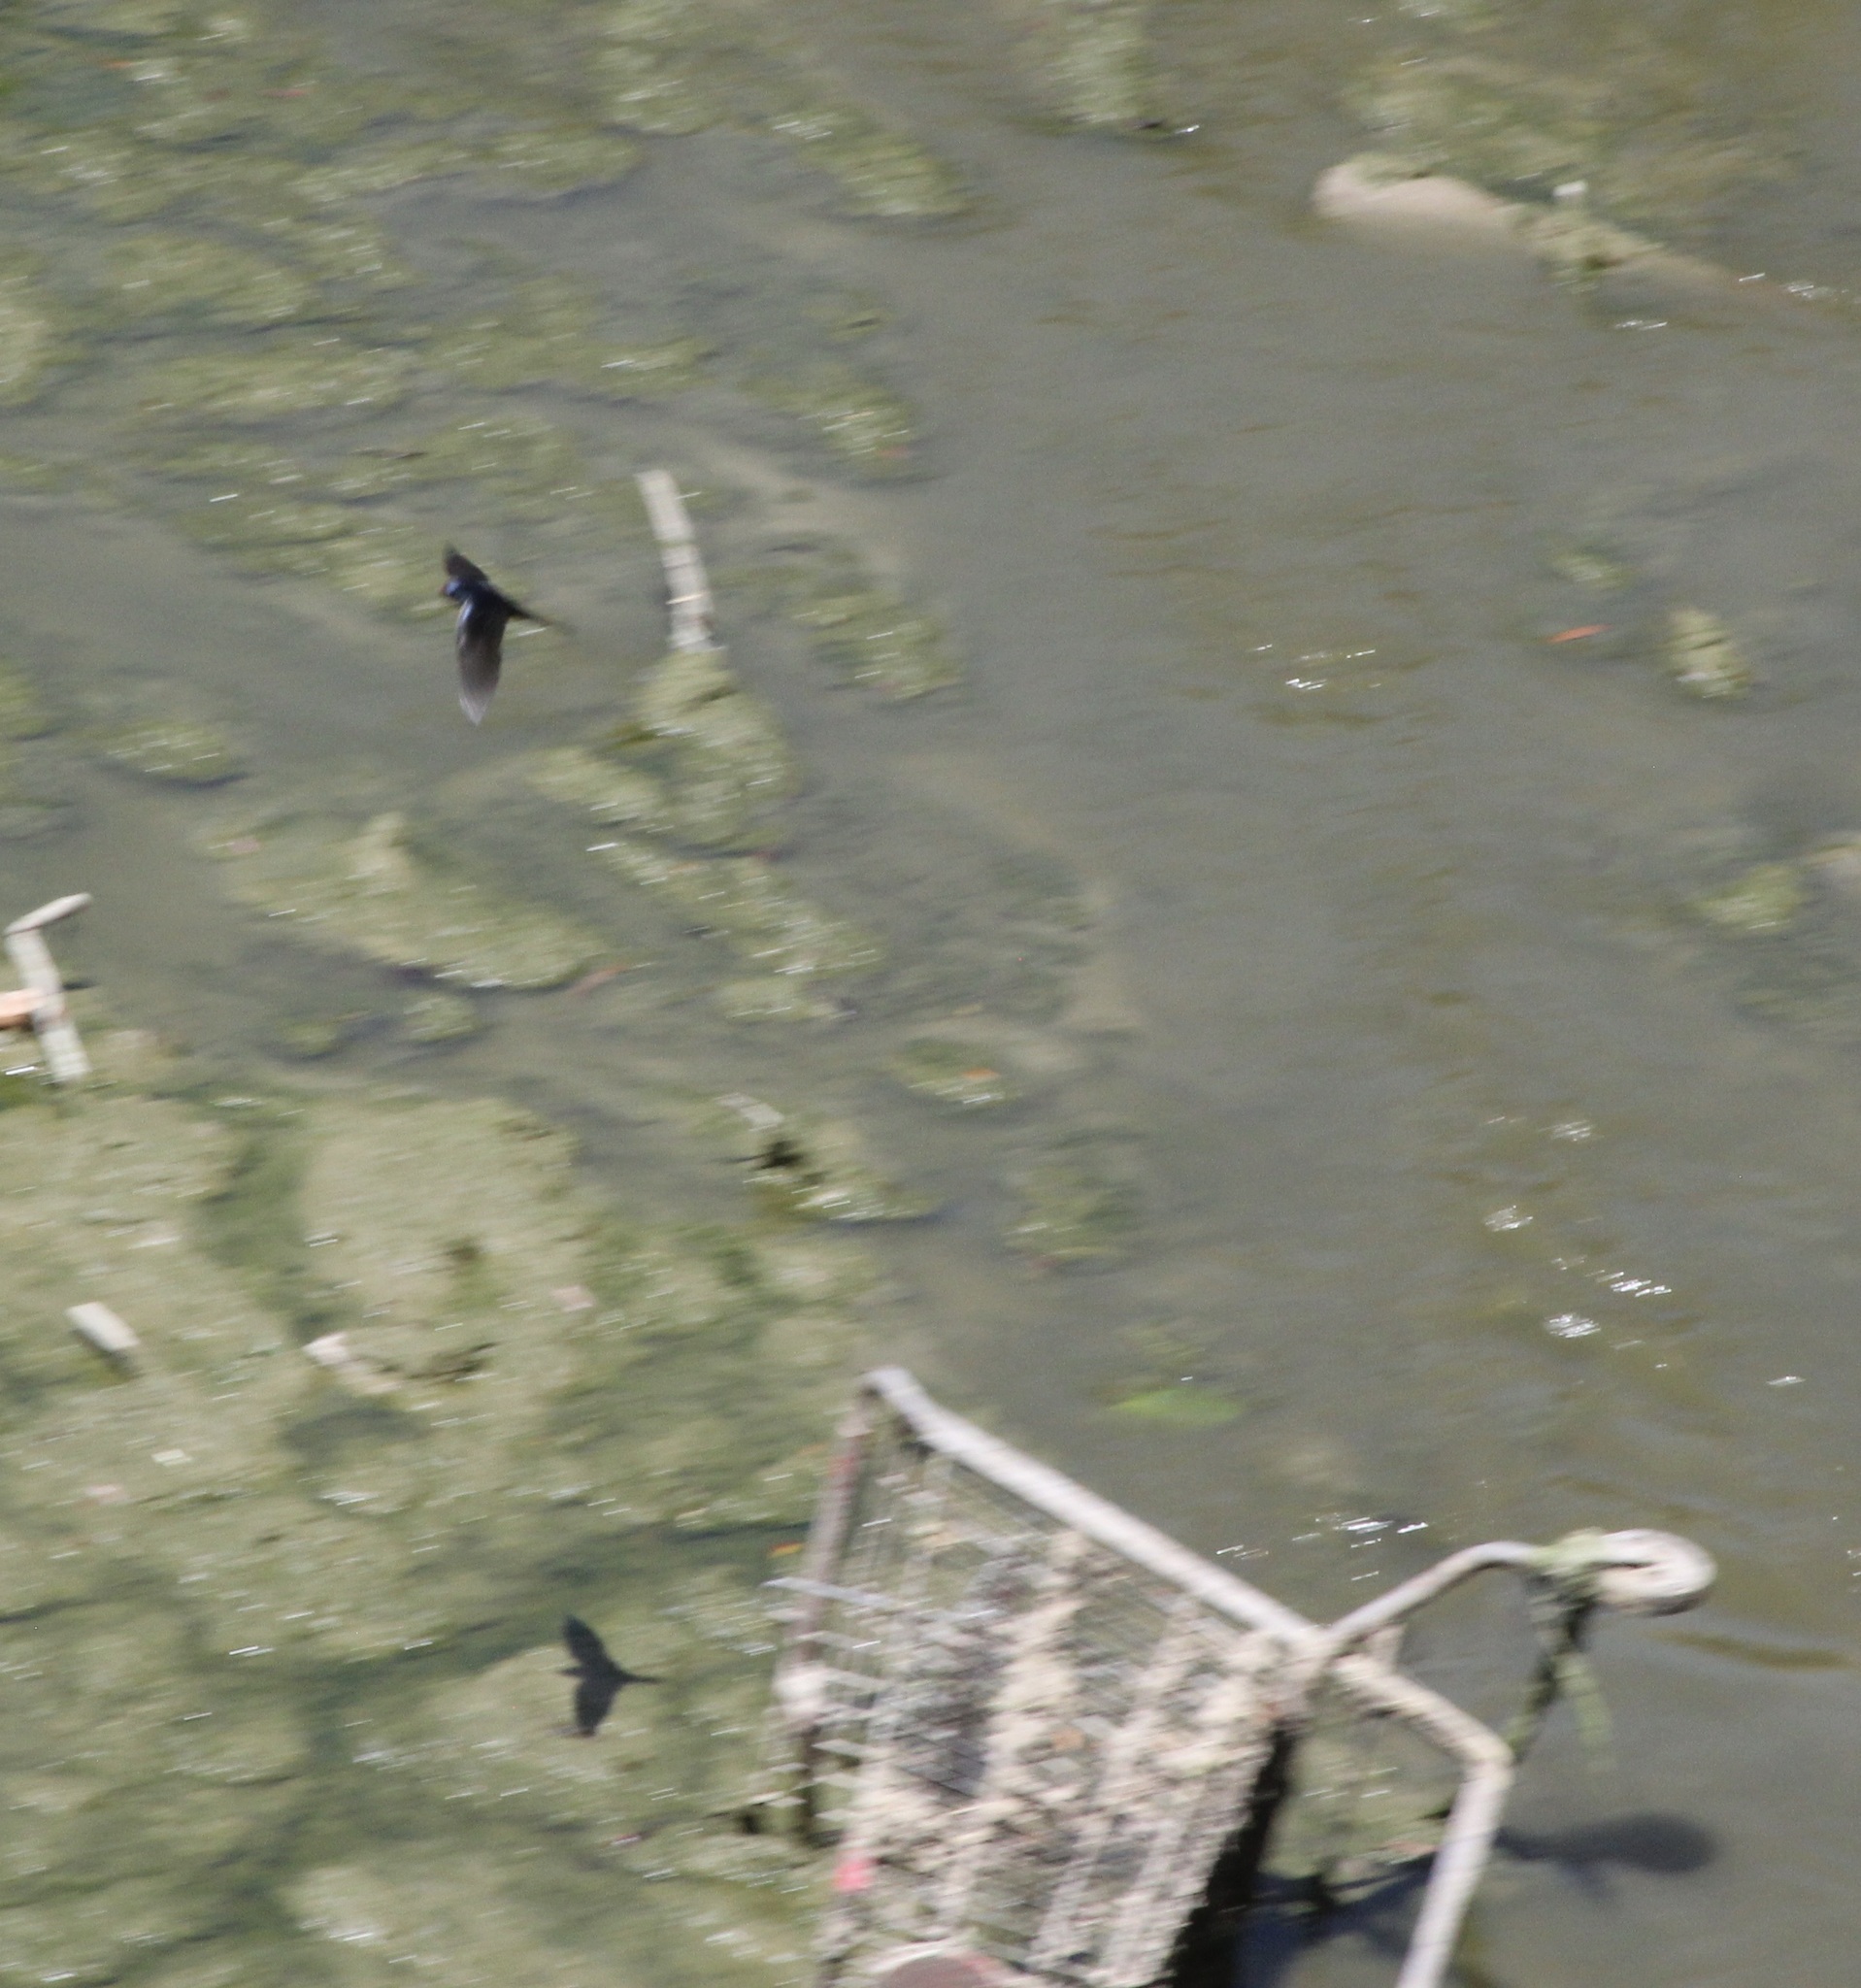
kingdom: Animalia
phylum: Chordata
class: Aves
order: Passeriformes
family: Hirundinidae
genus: Hirundo
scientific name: Hirundo rustica
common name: Barn swallow
